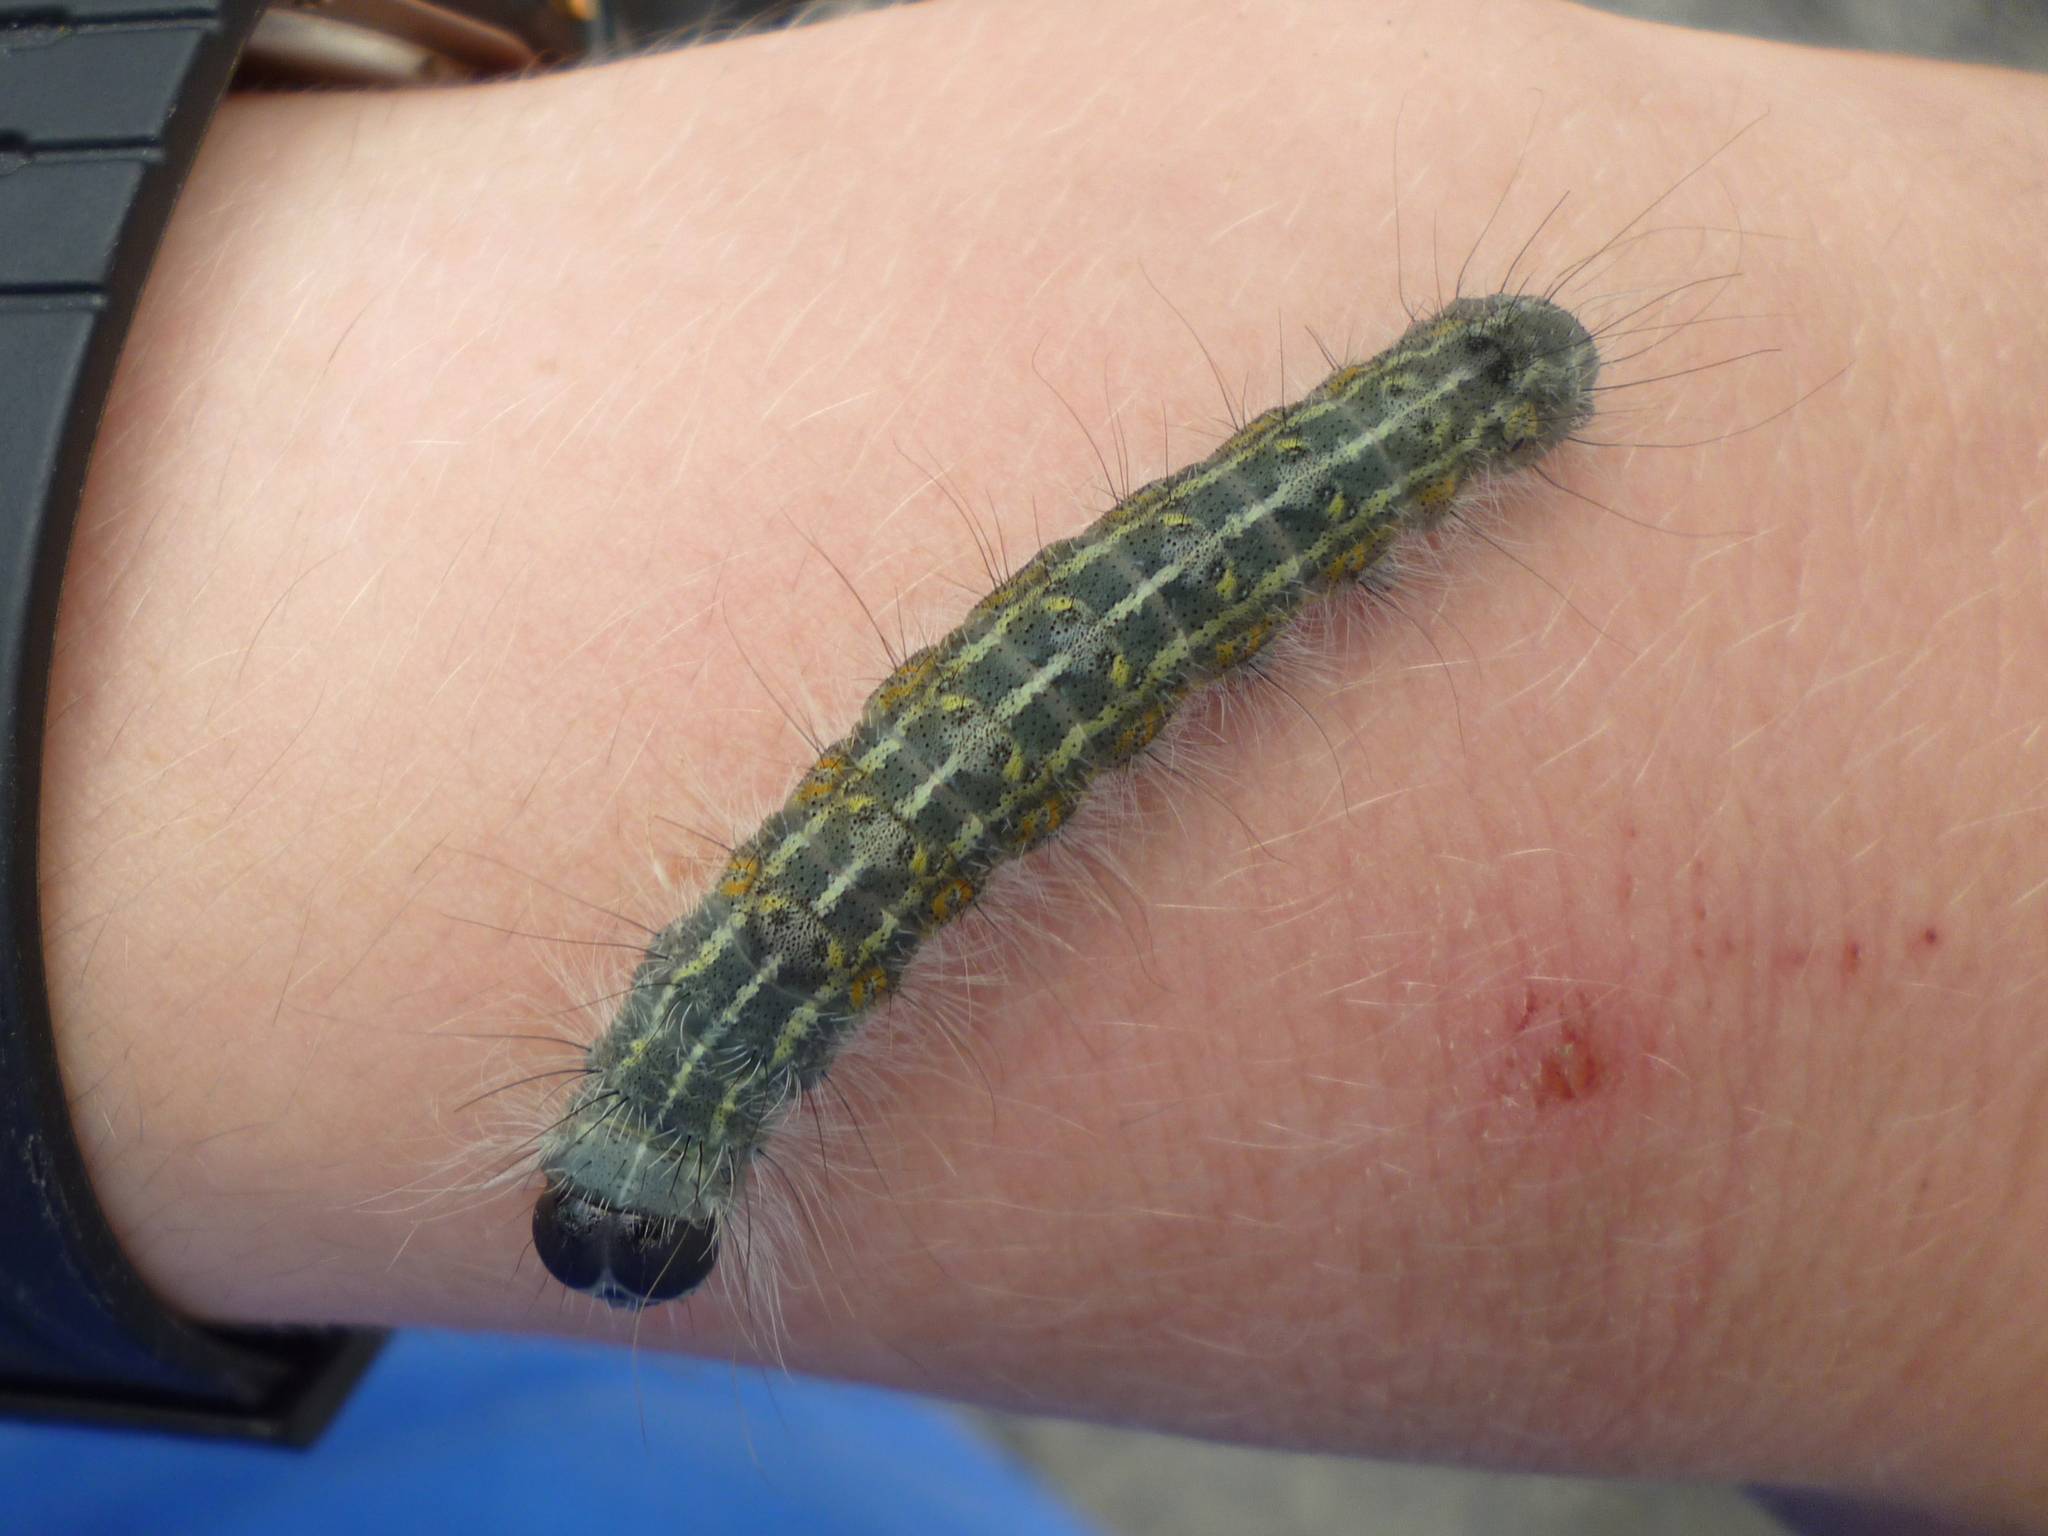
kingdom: Animalia
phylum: Arthropoda
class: Insecta
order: Lepidoptera
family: Noctuidae
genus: Acronicta
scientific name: Acronicta lobeliae
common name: Greater oak dagger
